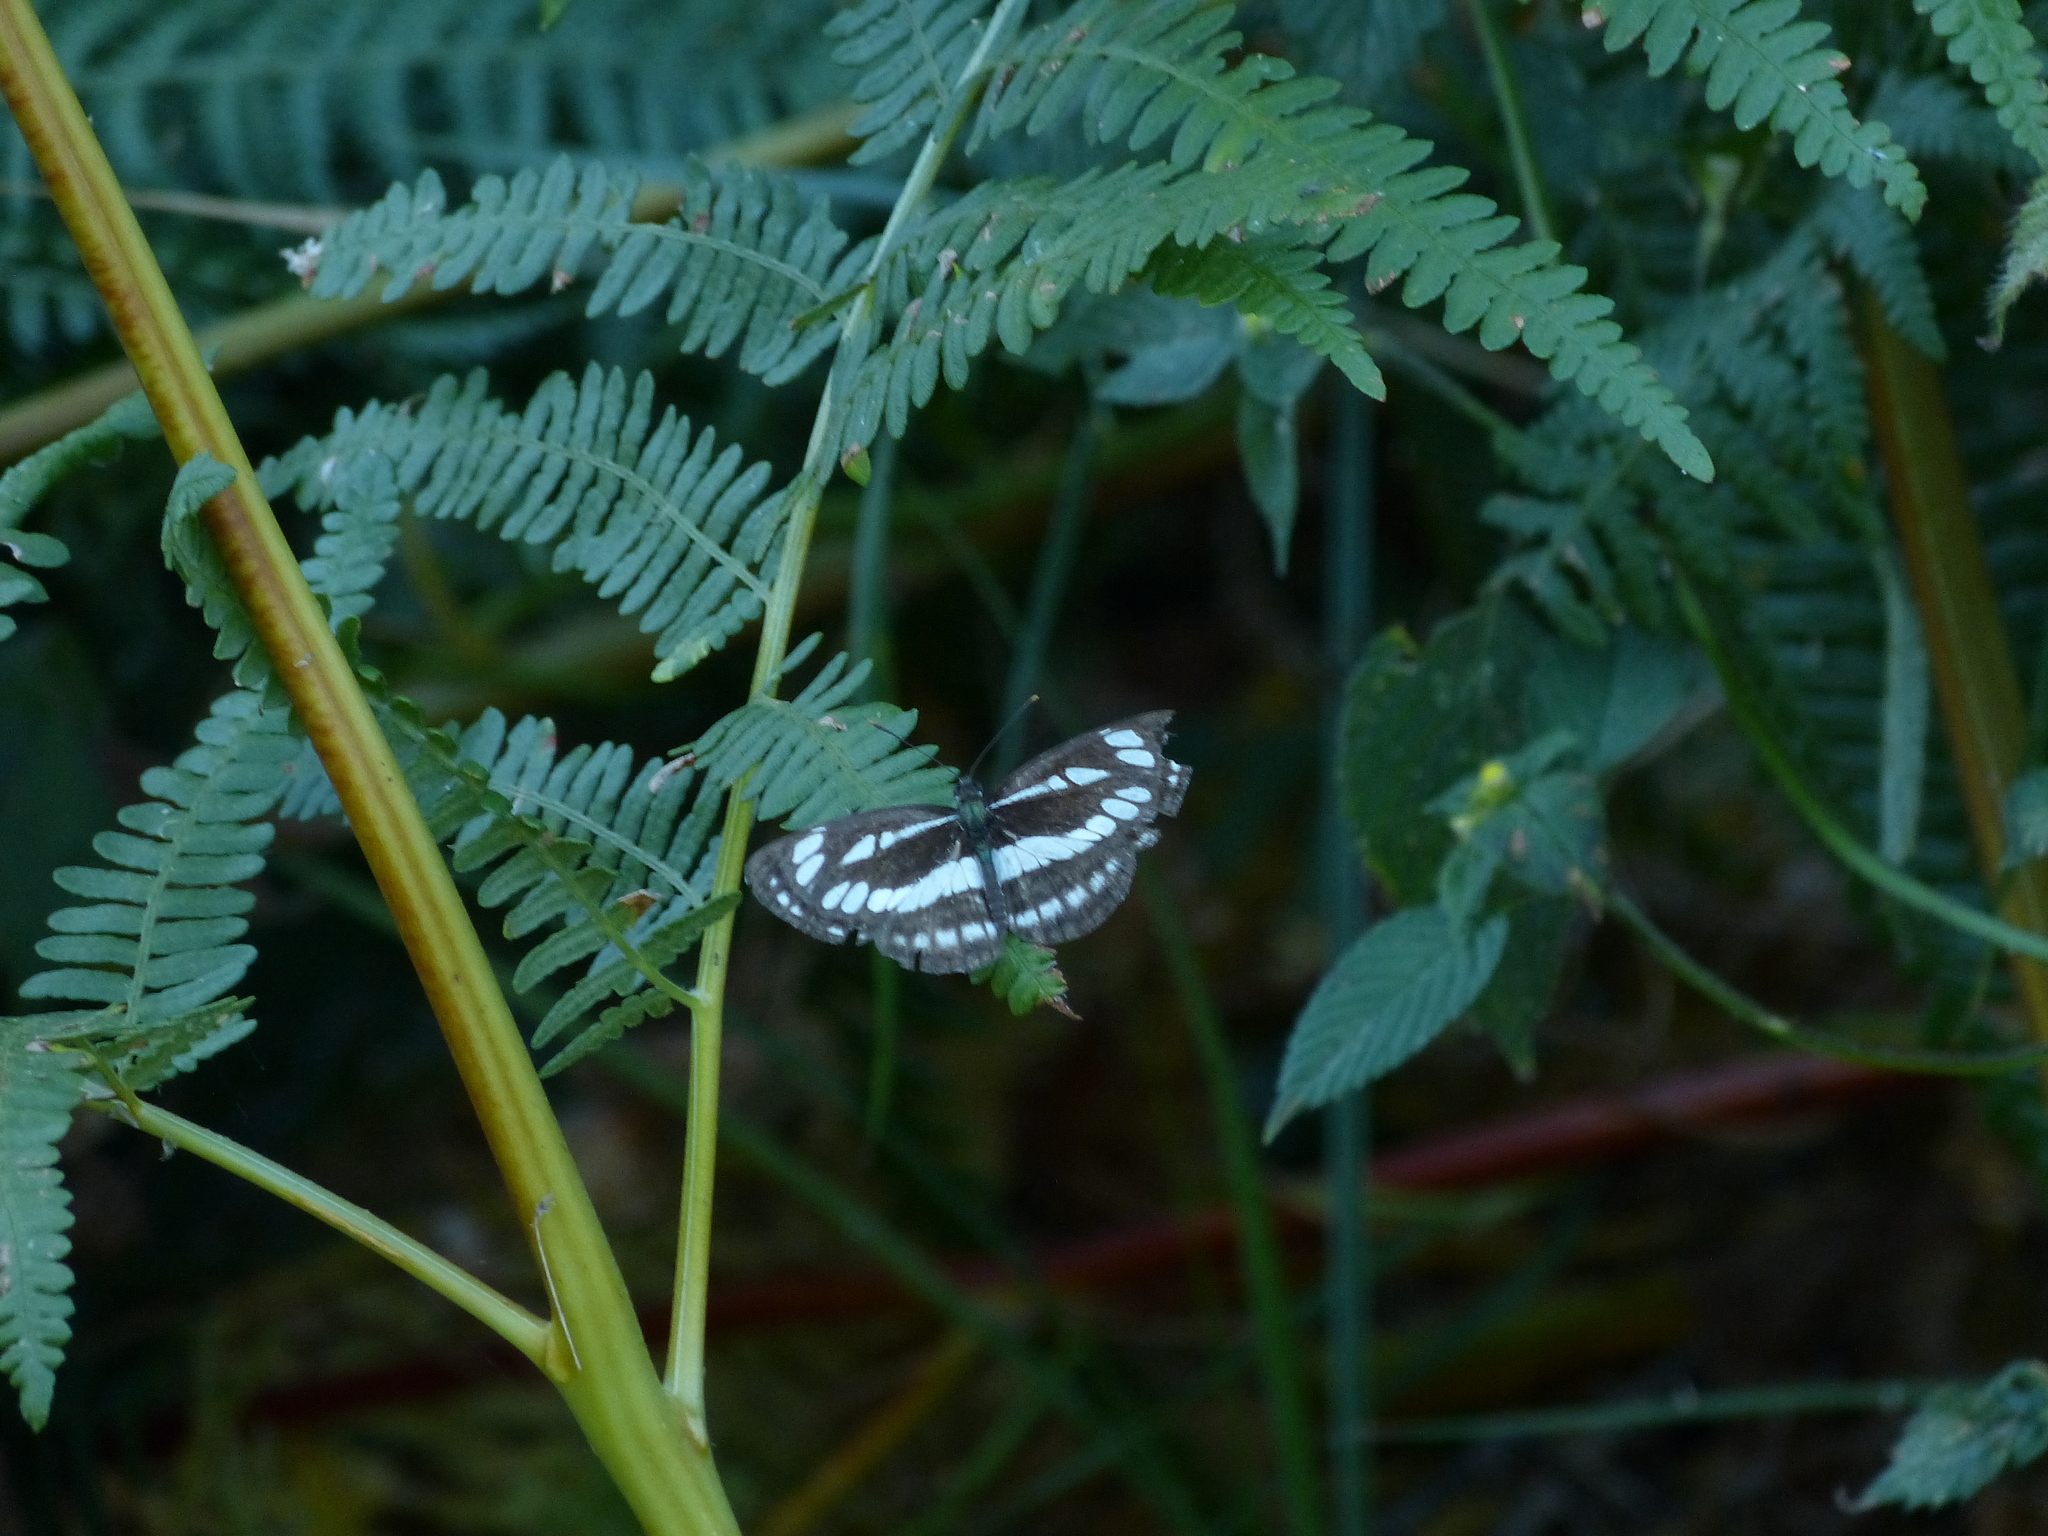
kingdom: Animalia
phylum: Arthropoda
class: Insecta
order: Lepidoptera
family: Nymphalidae
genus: Neptis
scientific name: Neptis sappho
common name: Common glider
